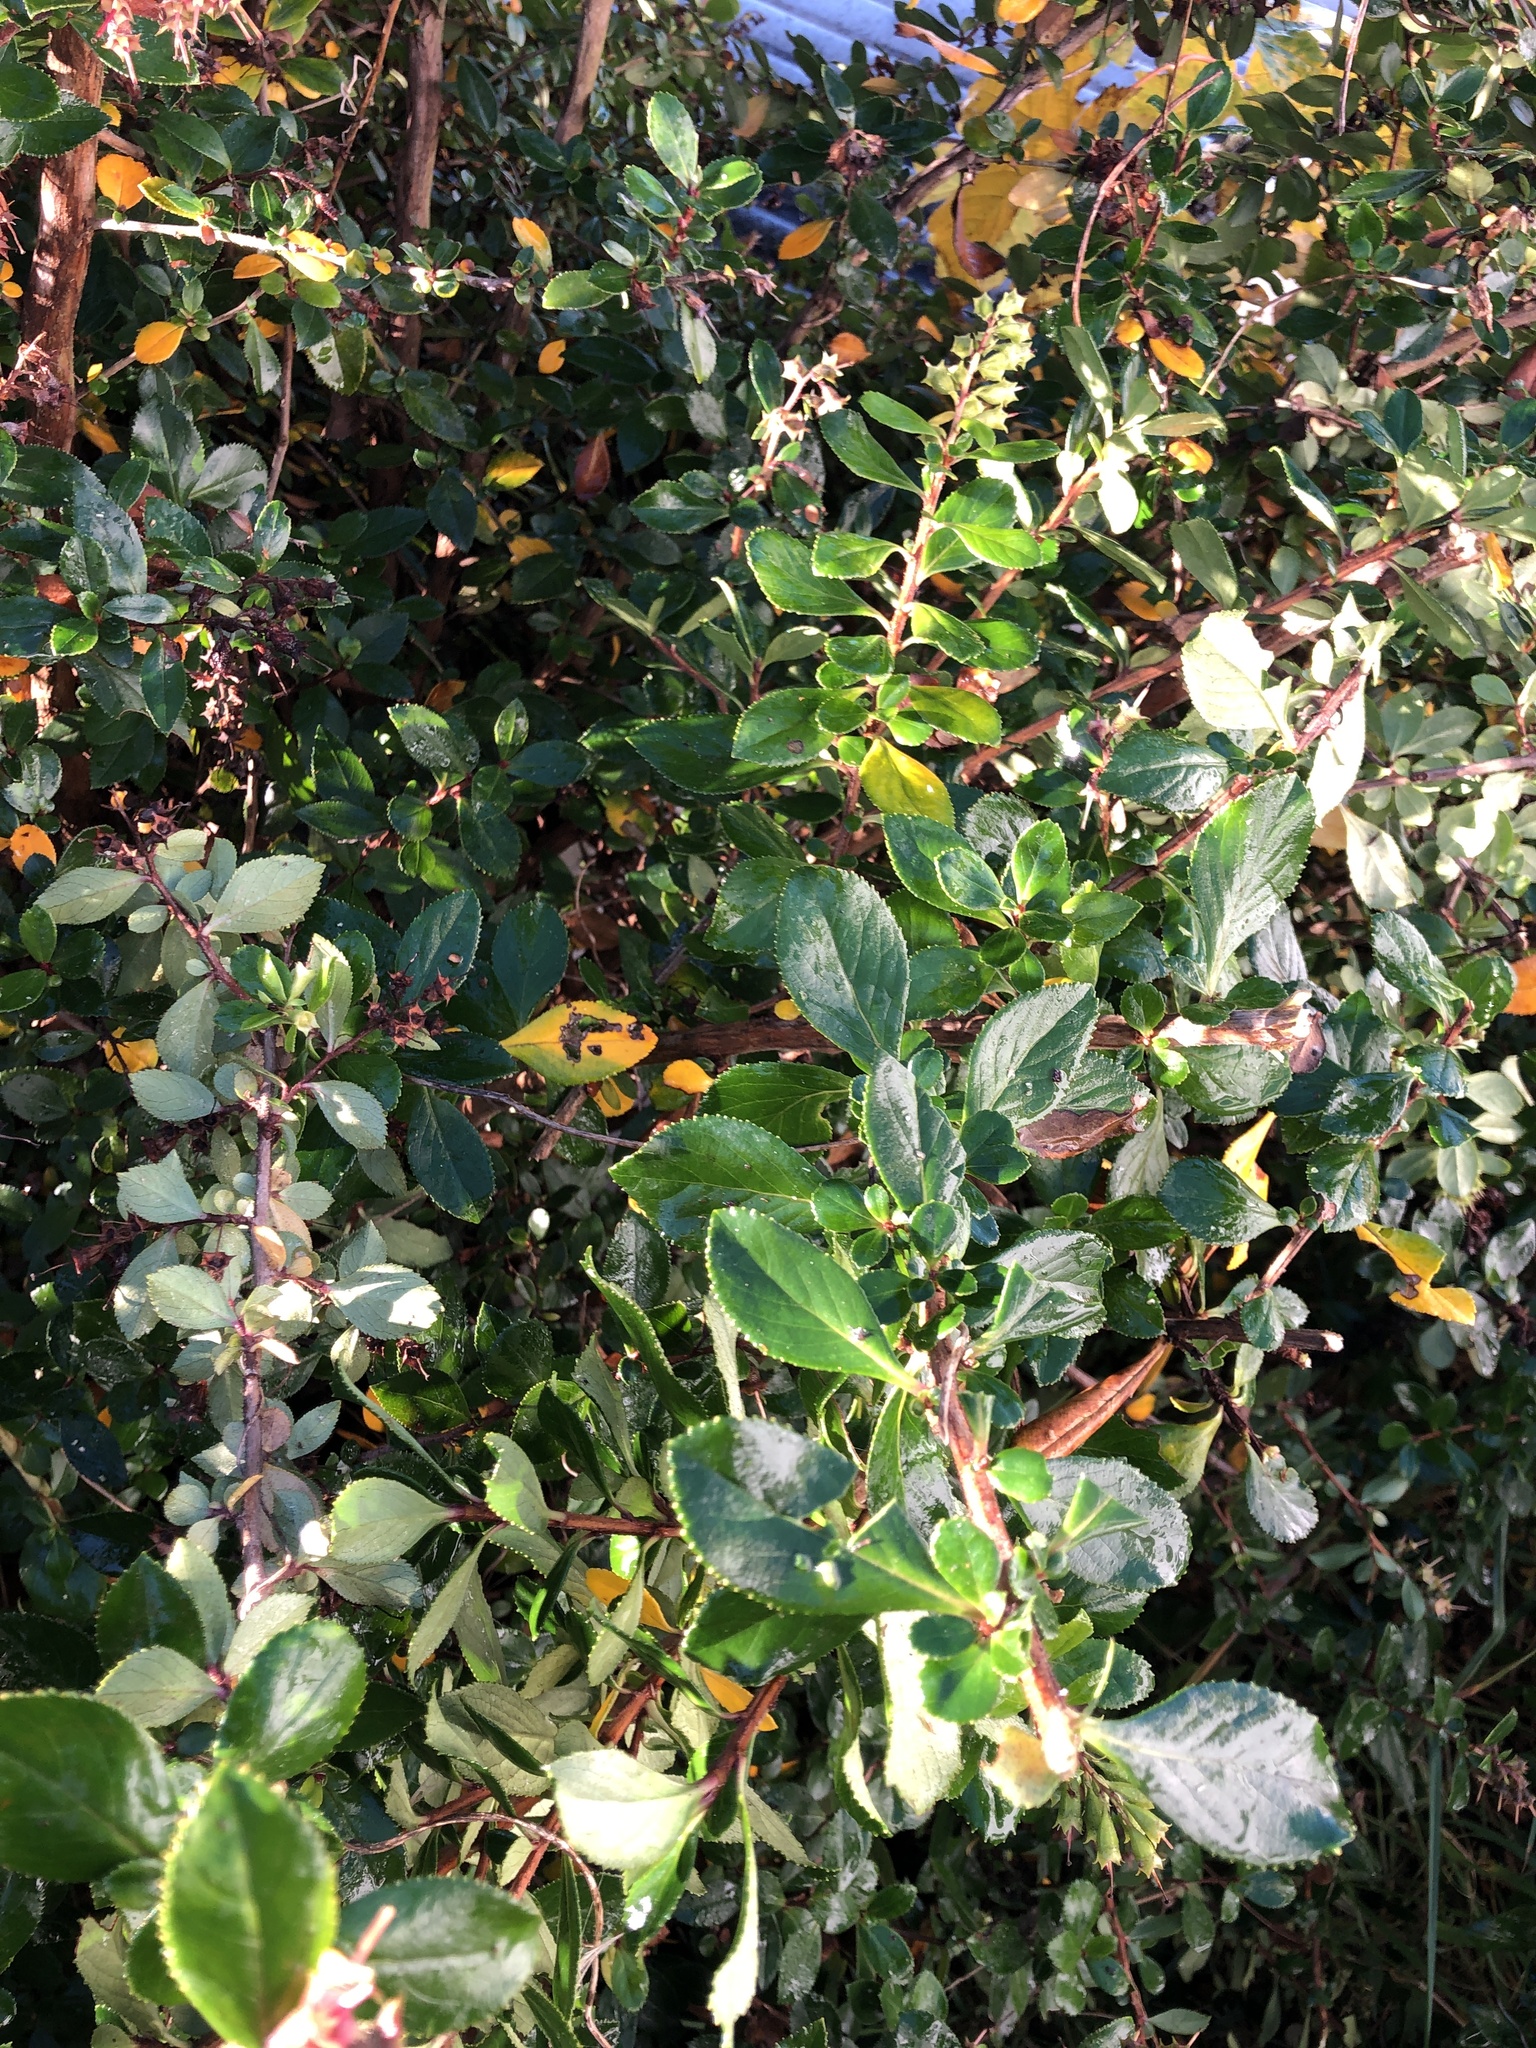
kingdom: Plantae
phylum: Tracheophyta
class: Magnoliopsida
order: Escalloniales
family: Escalloniaceae
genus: Escallonia
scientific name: Escallonia rubra
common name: Redclaws
